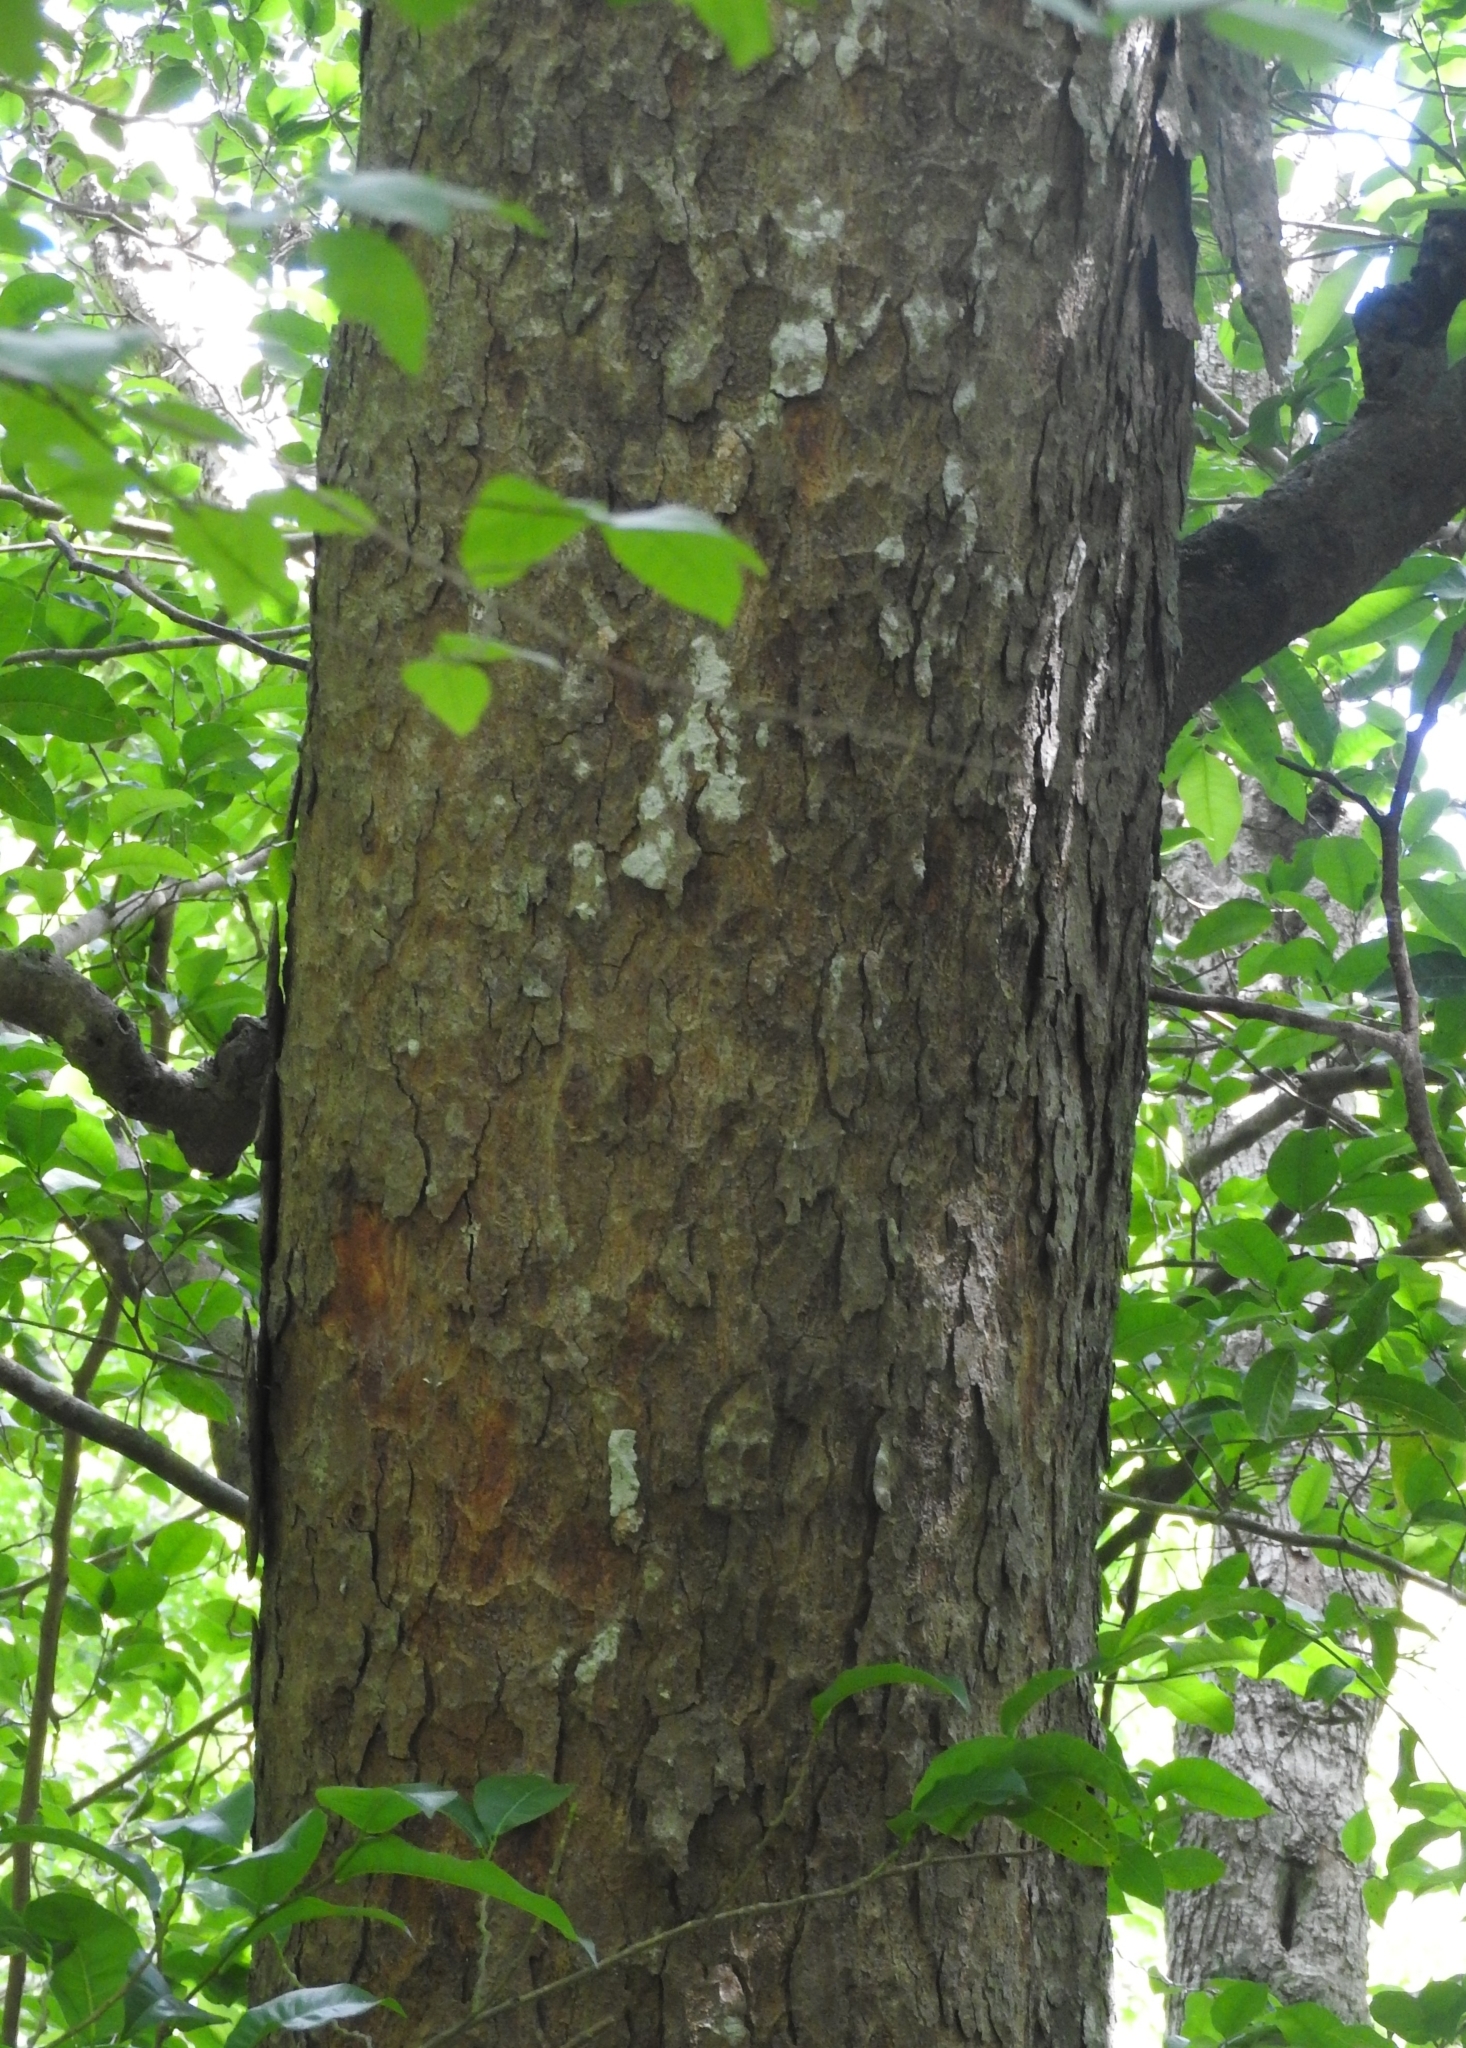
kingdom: Plantae
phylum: Tracheophyta
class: Magnoliopsida
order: Rosales
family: Moraceae
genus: Brosimum
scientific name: Brosimum alicastrum
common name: Breadnut
